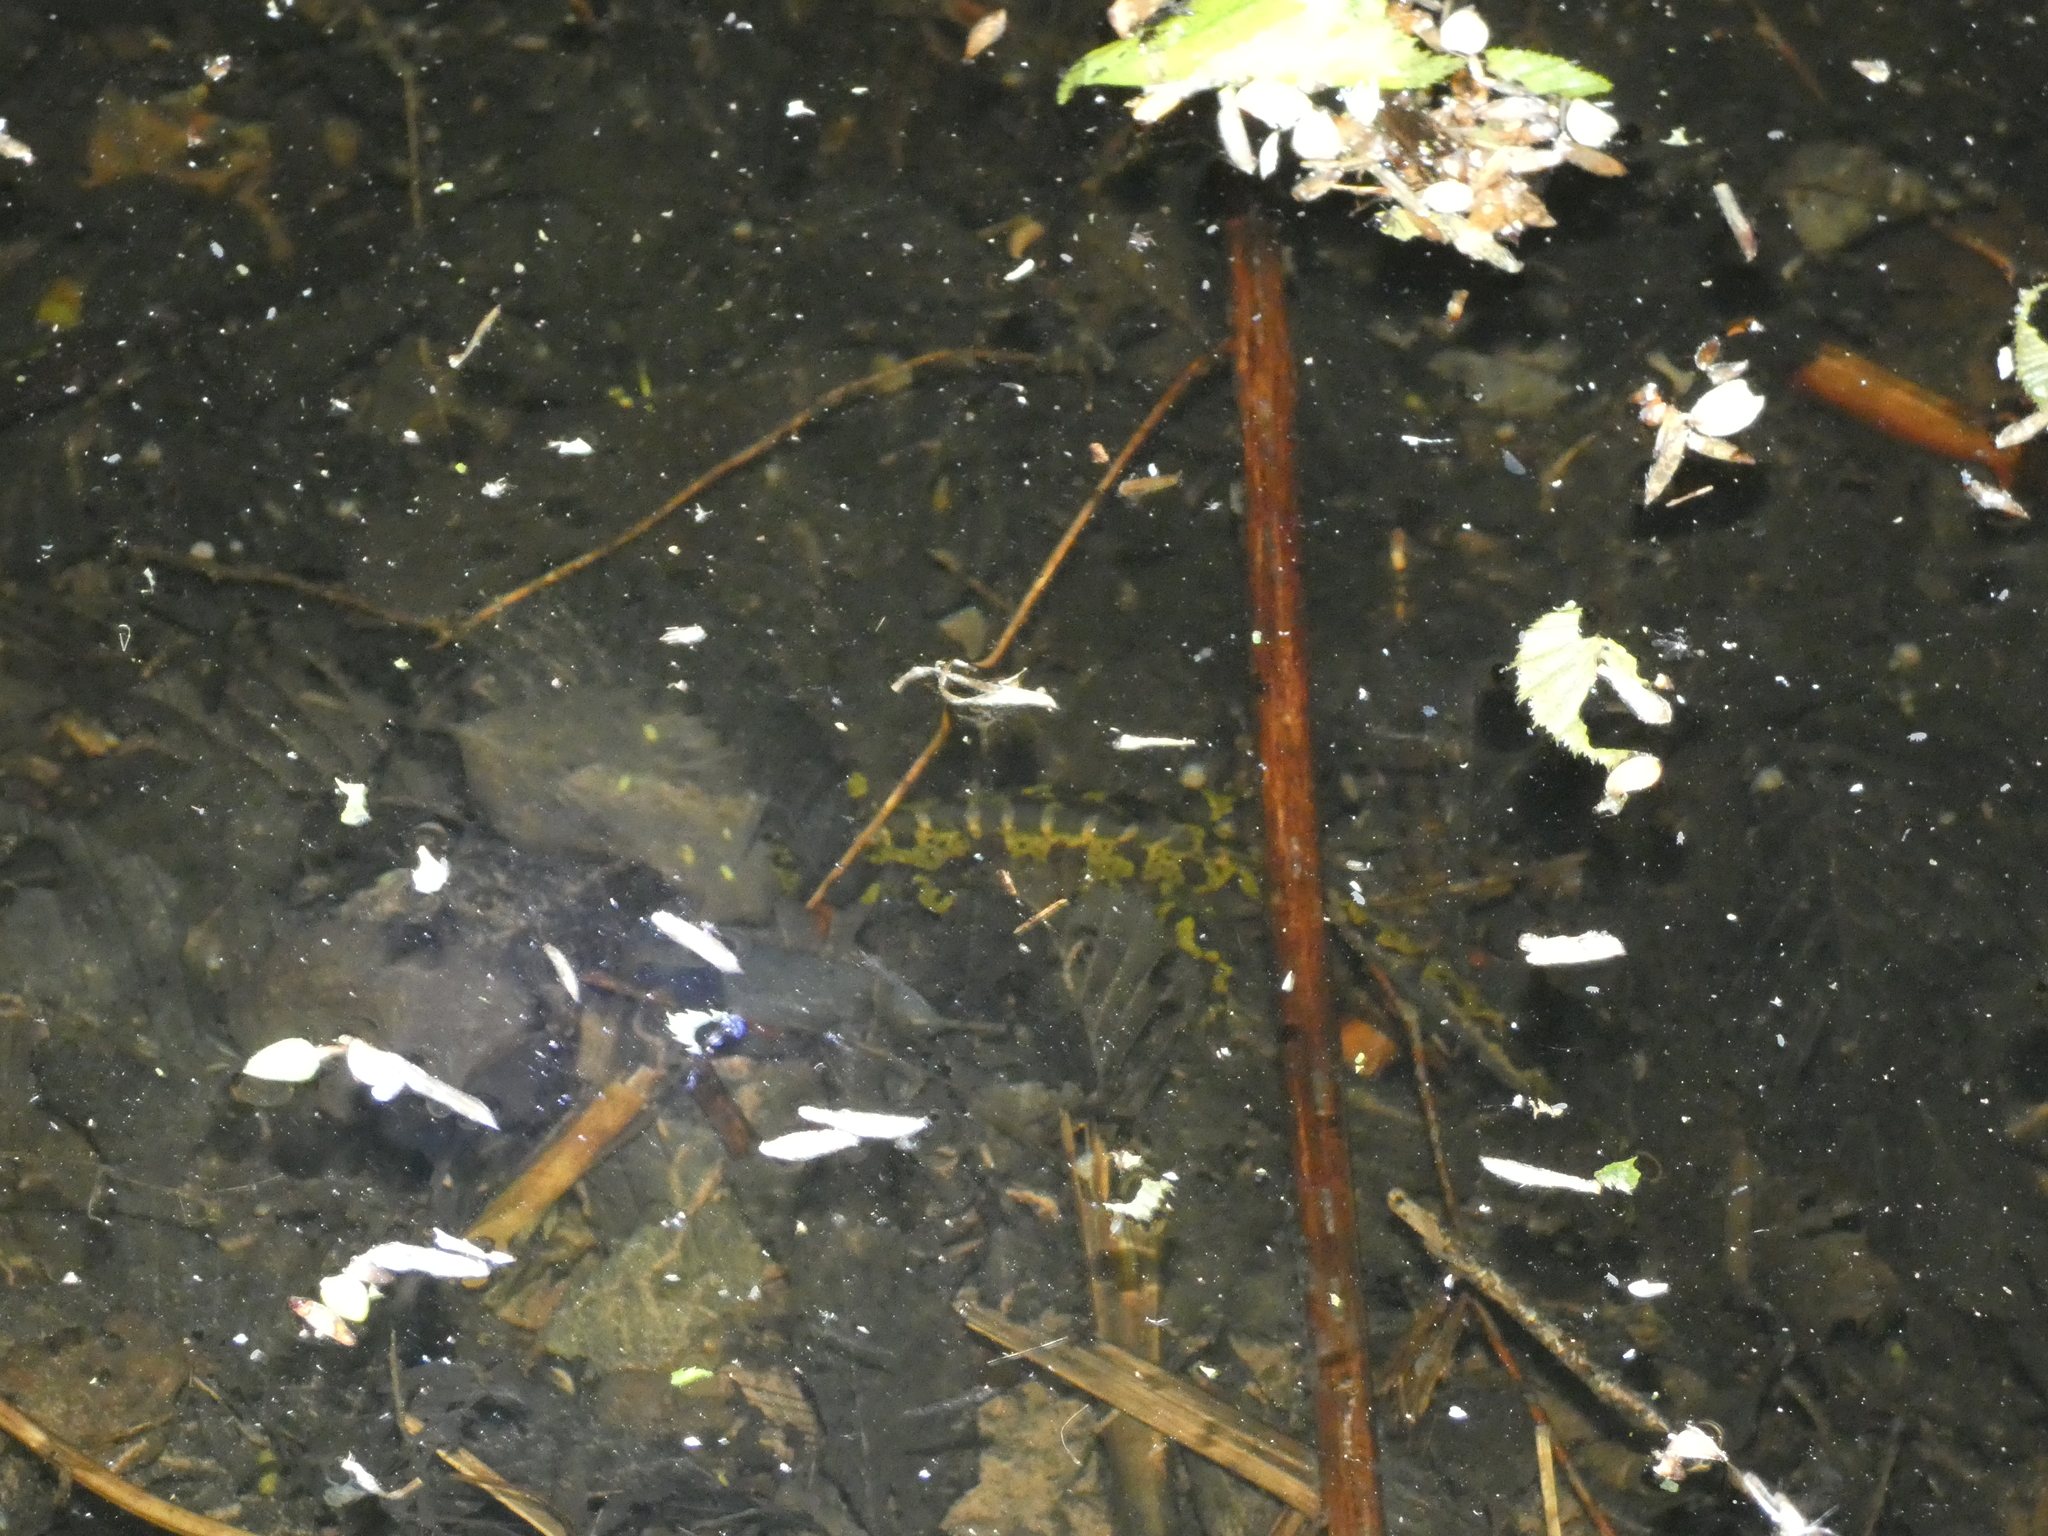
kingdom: Animalia
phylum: Chordata
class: Amphibia
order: Caudata
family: Salamandridae
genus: Triturus
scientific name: Triturus marmoratus
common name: Marbled newt
